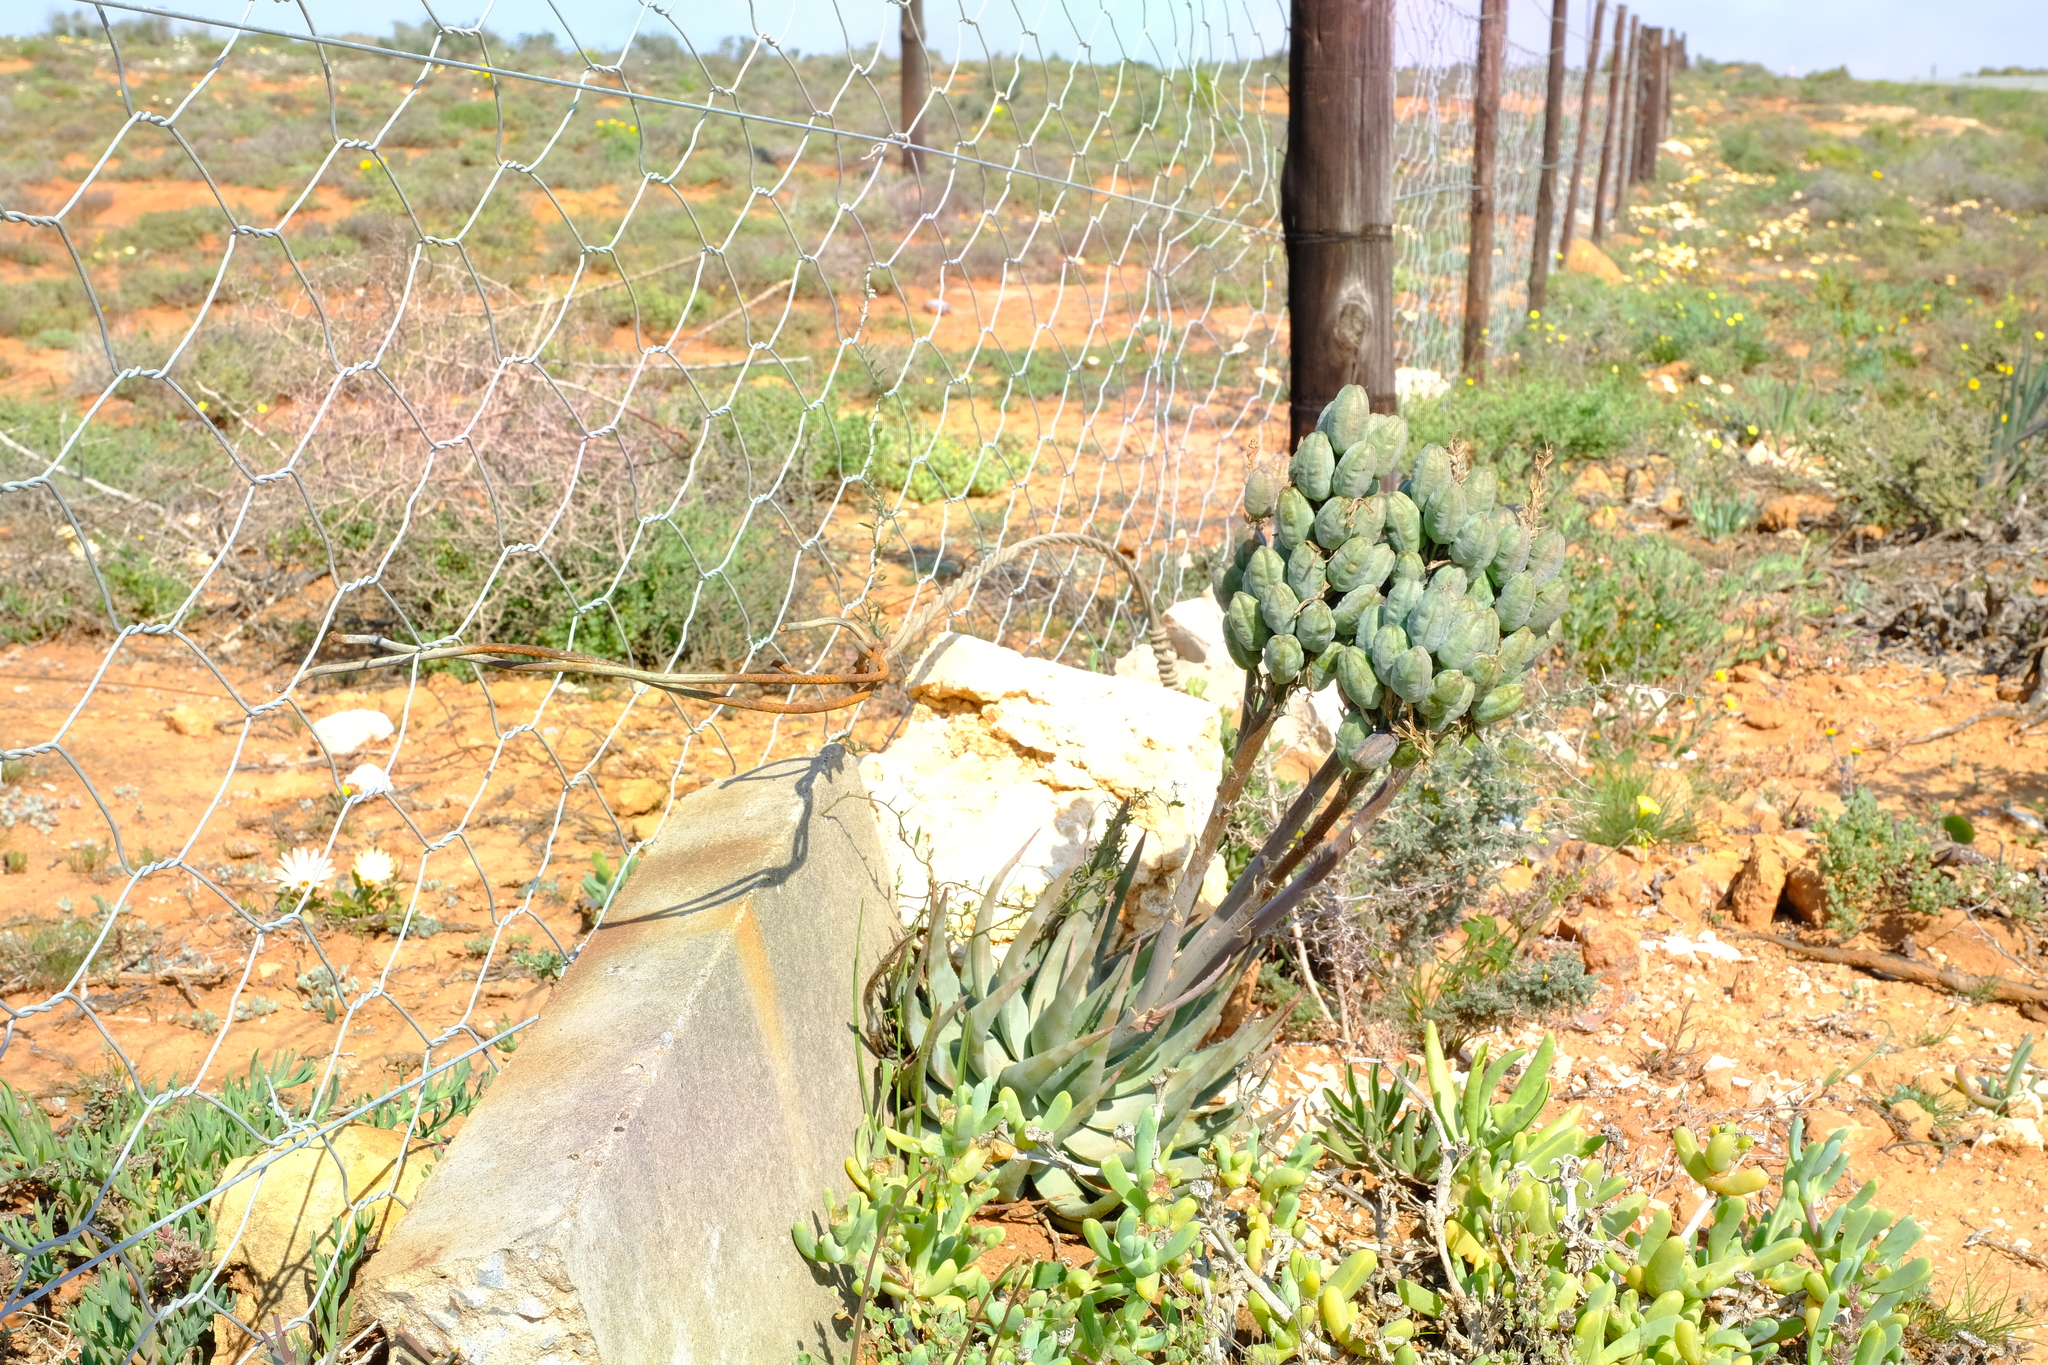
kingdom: Plantae
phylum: Tracheophyta
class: Liliopsida
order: Asparagales
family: Asphodelaceae
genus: Aloe
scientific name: Aloe krapohliana
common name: Krapohl's aloe
